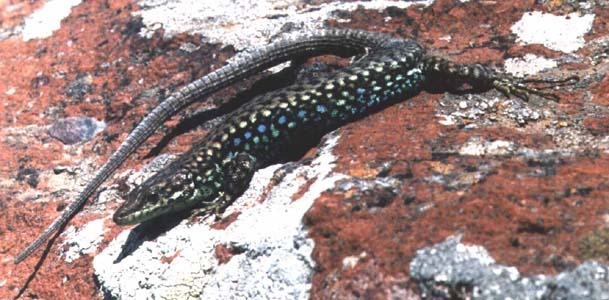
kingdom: Animalia
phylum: Chordata
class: Squamata
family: Lacertidae
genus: Darevskia
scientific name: Darevskia
